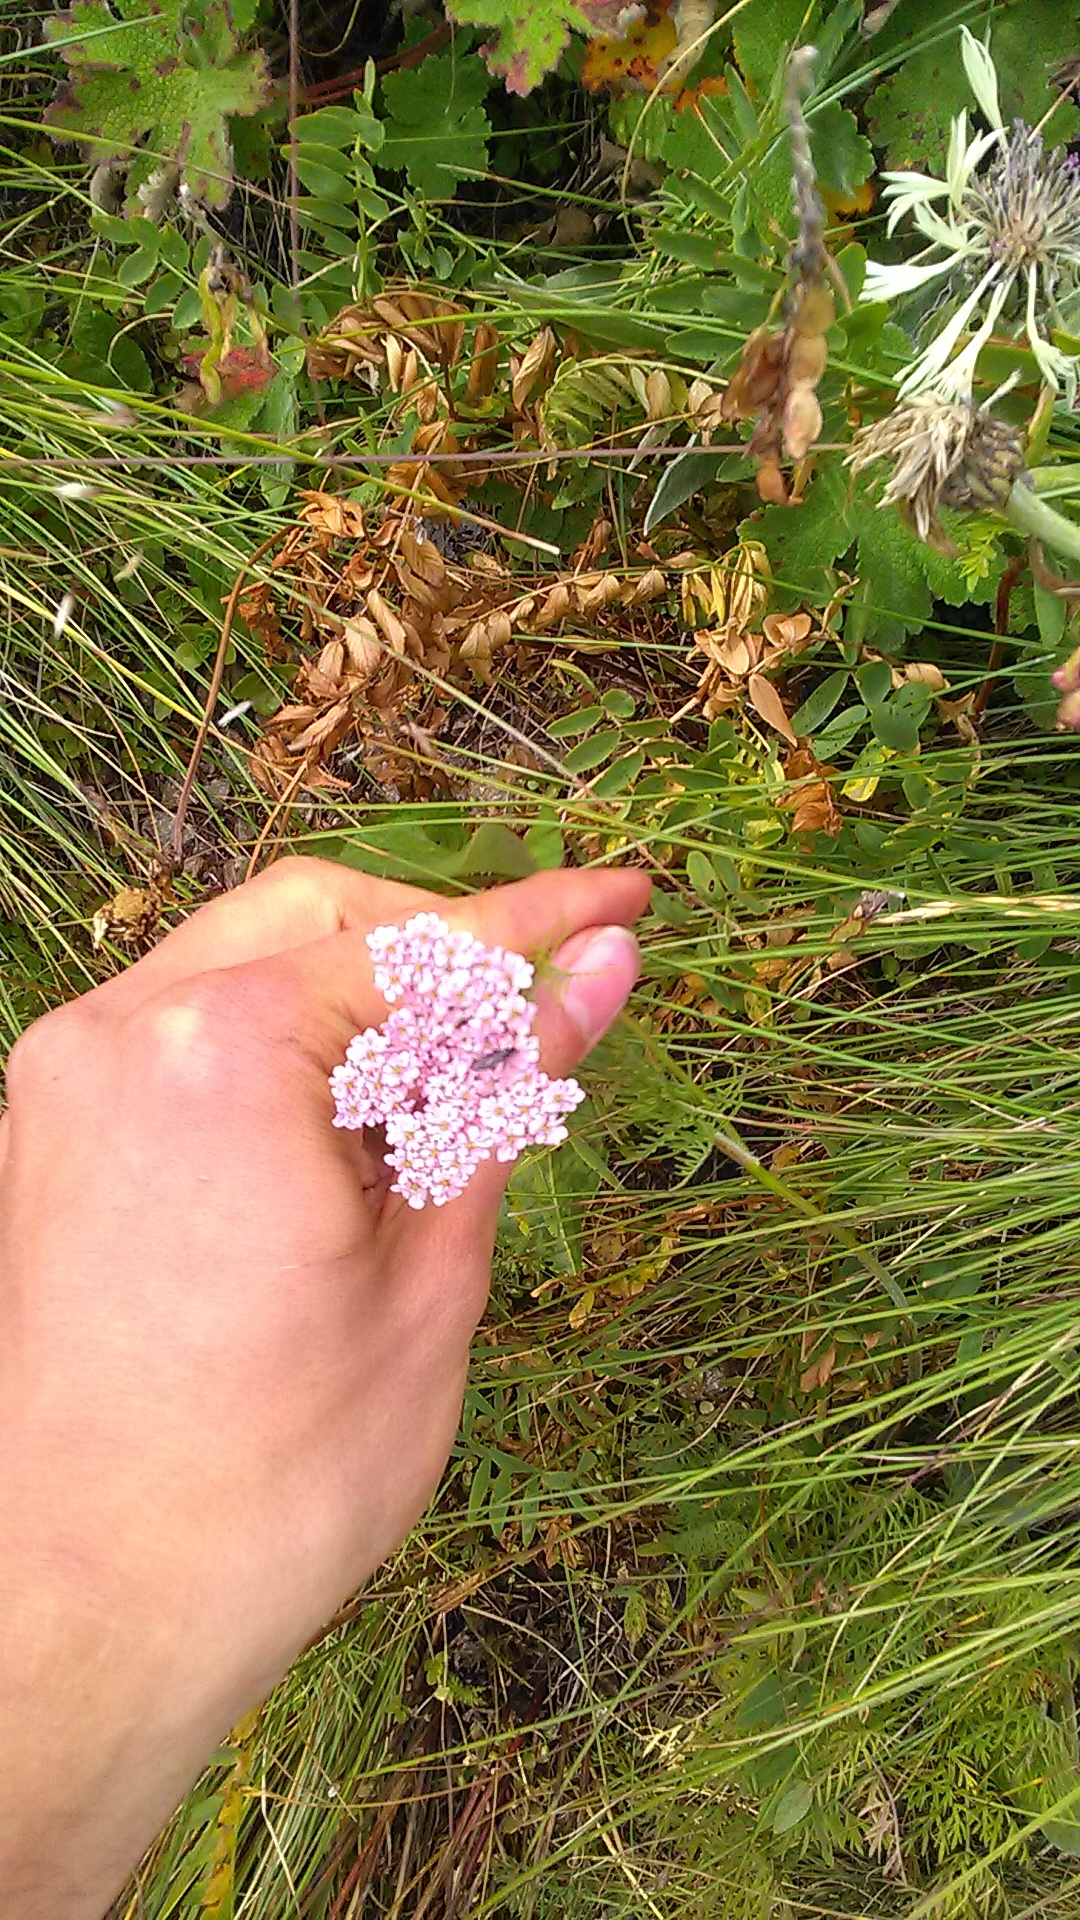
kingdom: Plantae
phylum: Tracheophyta
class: Magnoliopsida
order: Apiales
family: Apiaceae
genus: Chaerophyllum
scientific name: Chaerophyllum roseum
